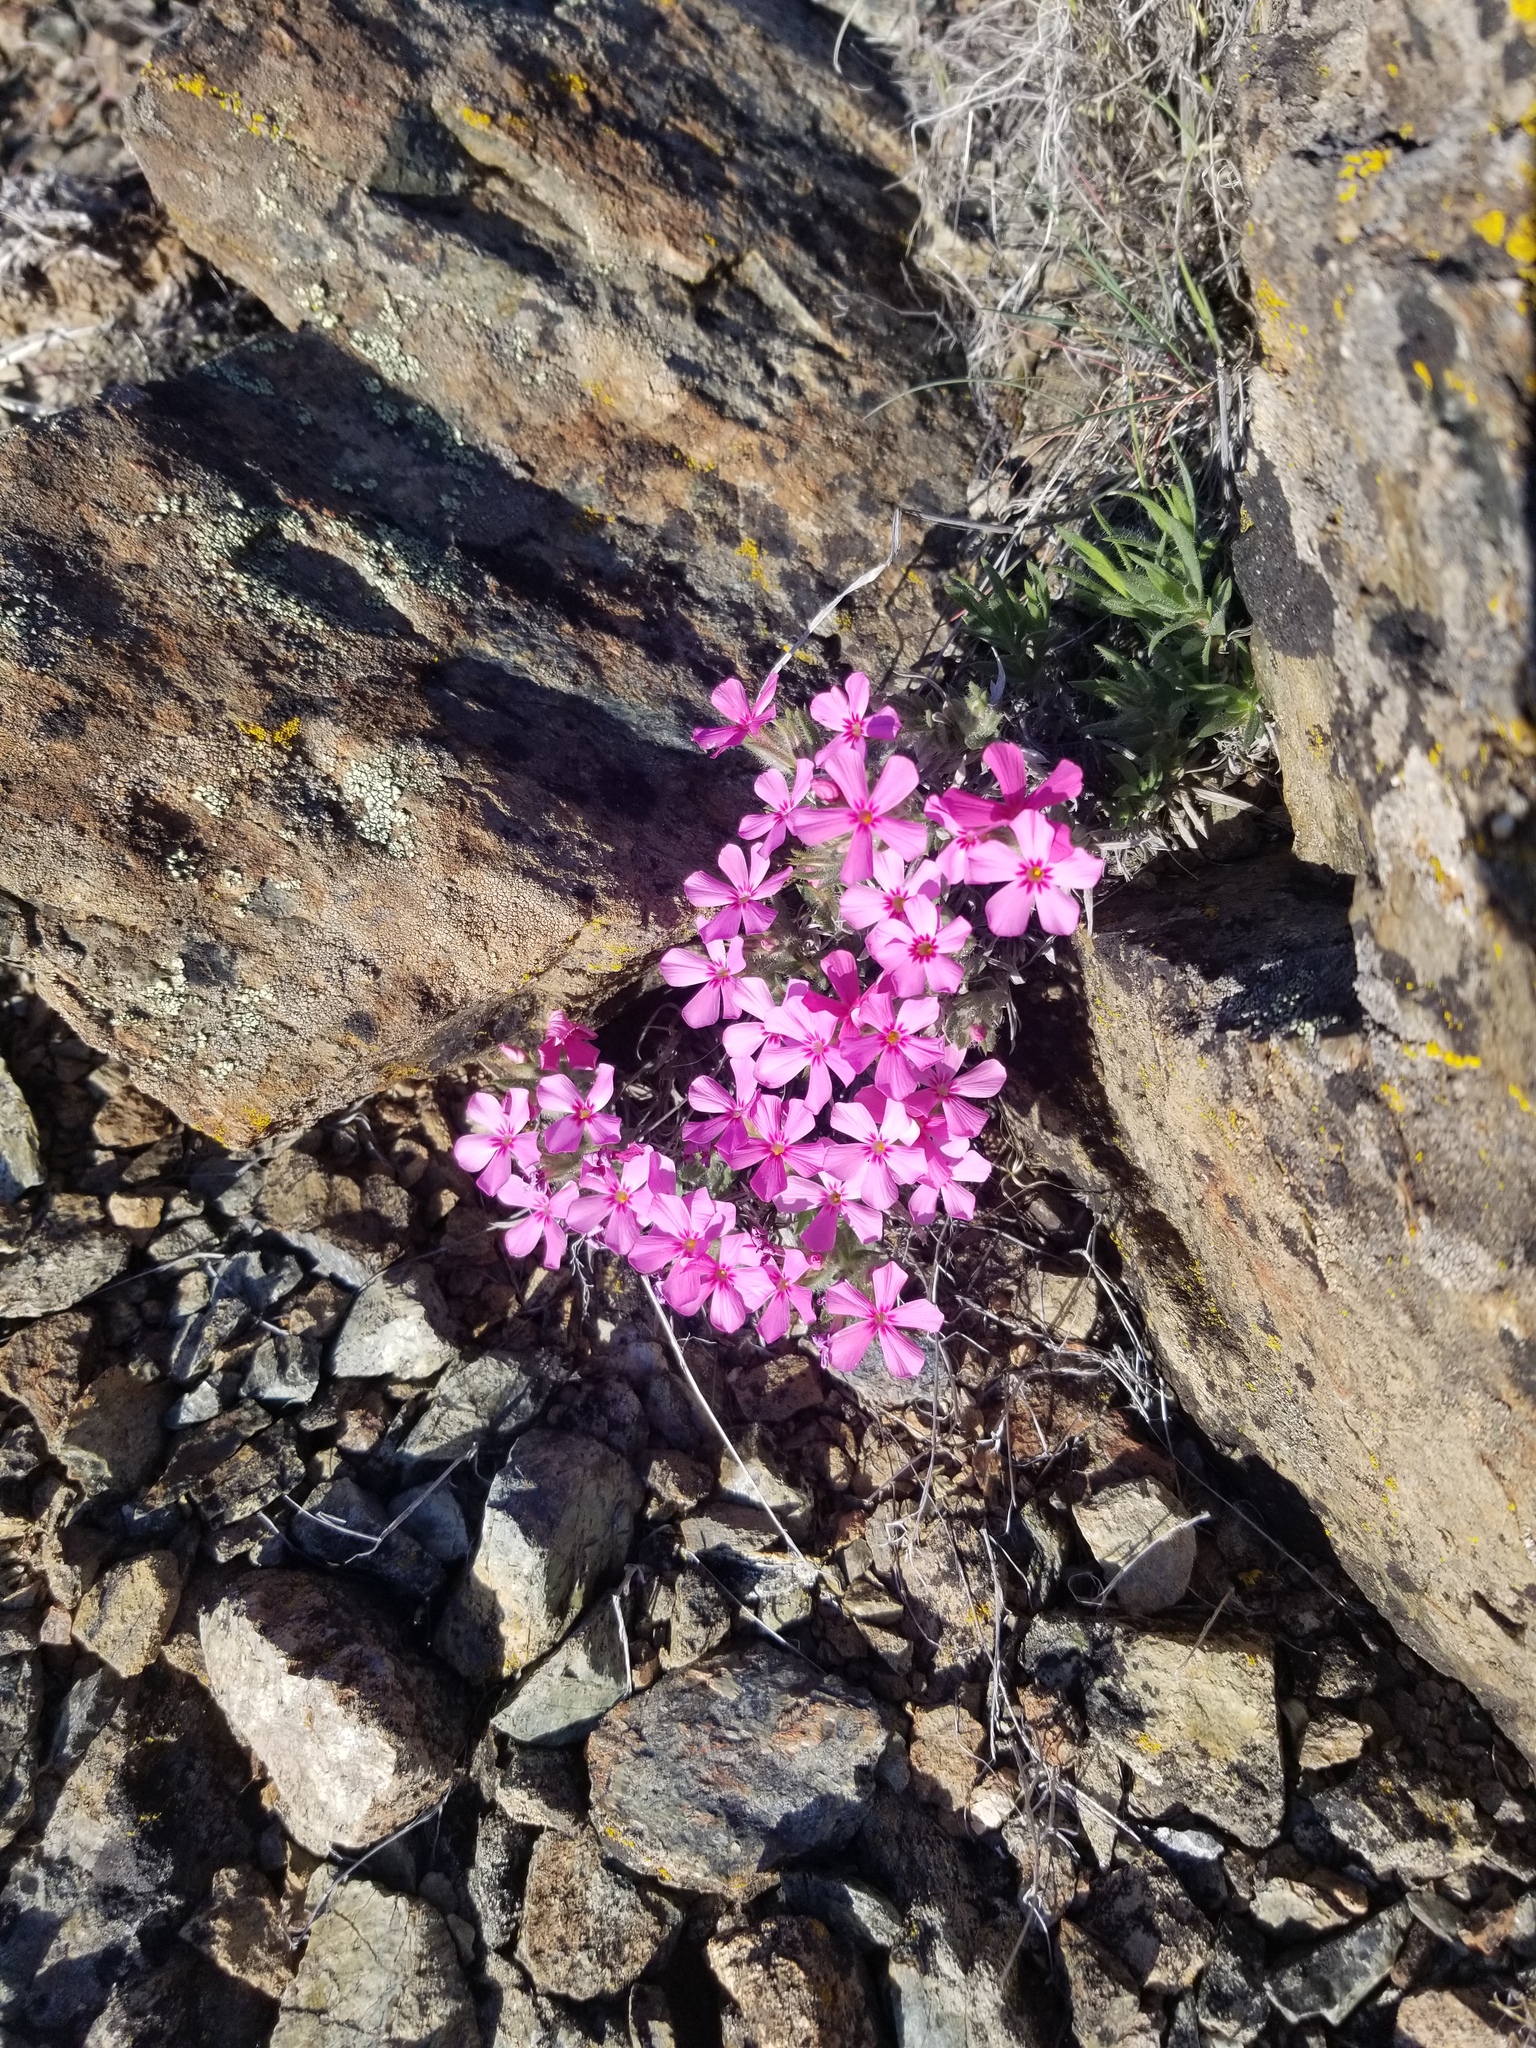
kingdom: Plantae
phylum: Tracheophyta
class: Magnoliopsida
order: Ericales
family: Polemoniaceae
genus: Phlox
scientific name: Phlox hirsuta
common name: Yreka phlox
